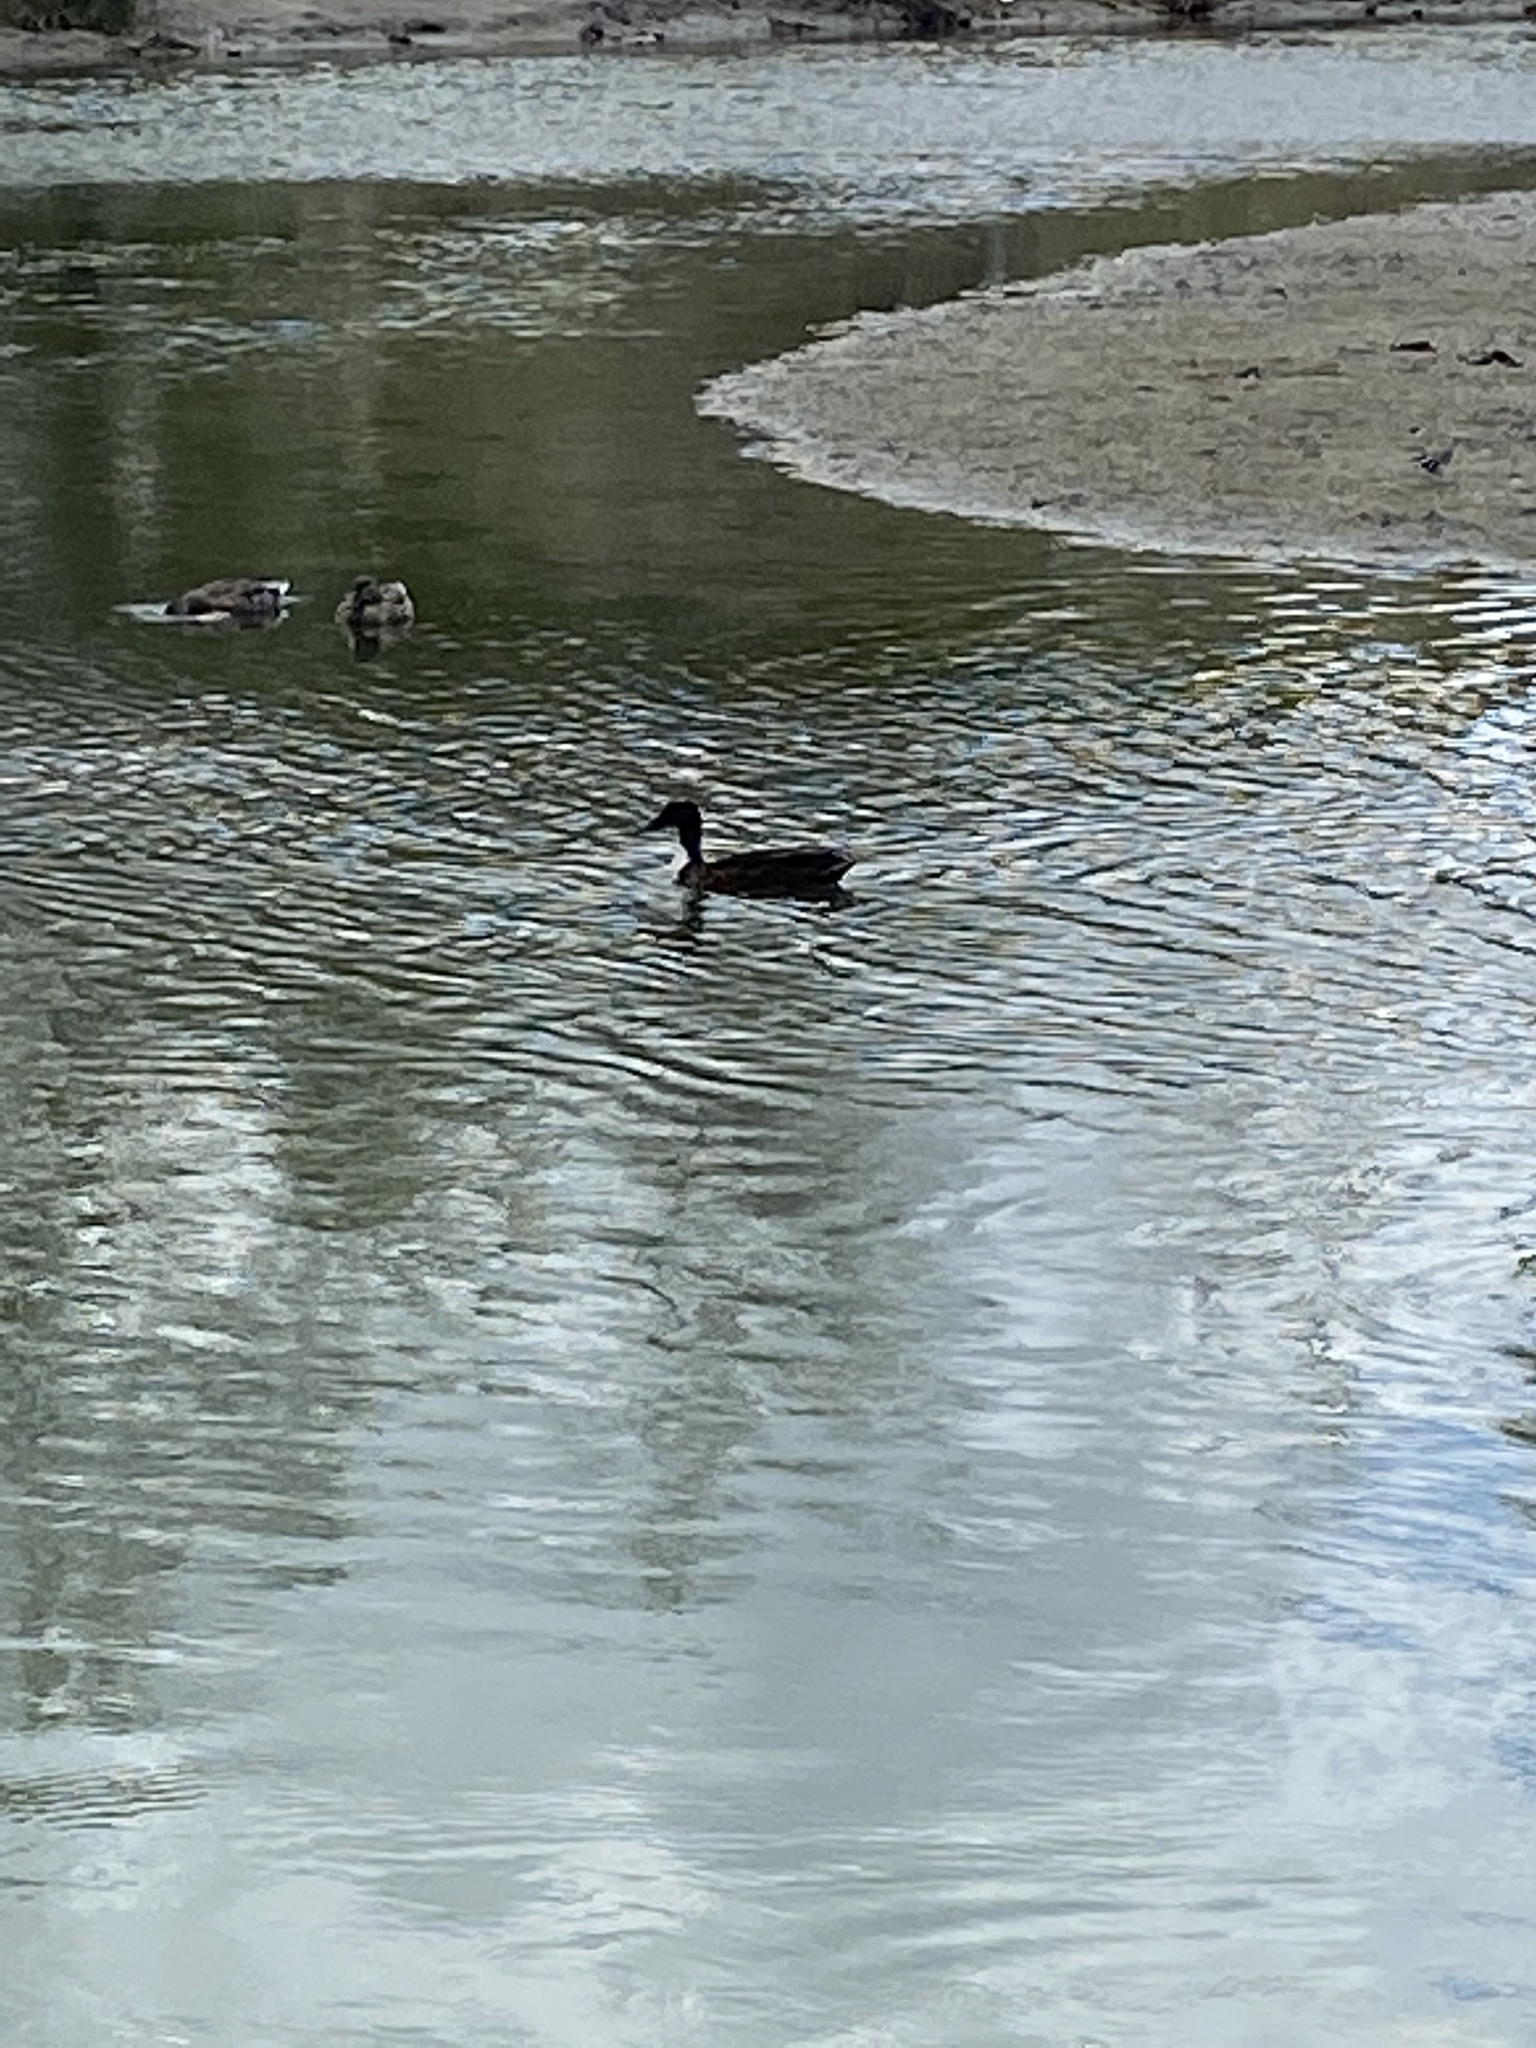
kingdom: Animalia
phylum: Chordata
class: Aves
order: Anseriformes
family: Anatidae
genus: Anas
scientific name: Anas platyrhynchos
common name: Mallard
